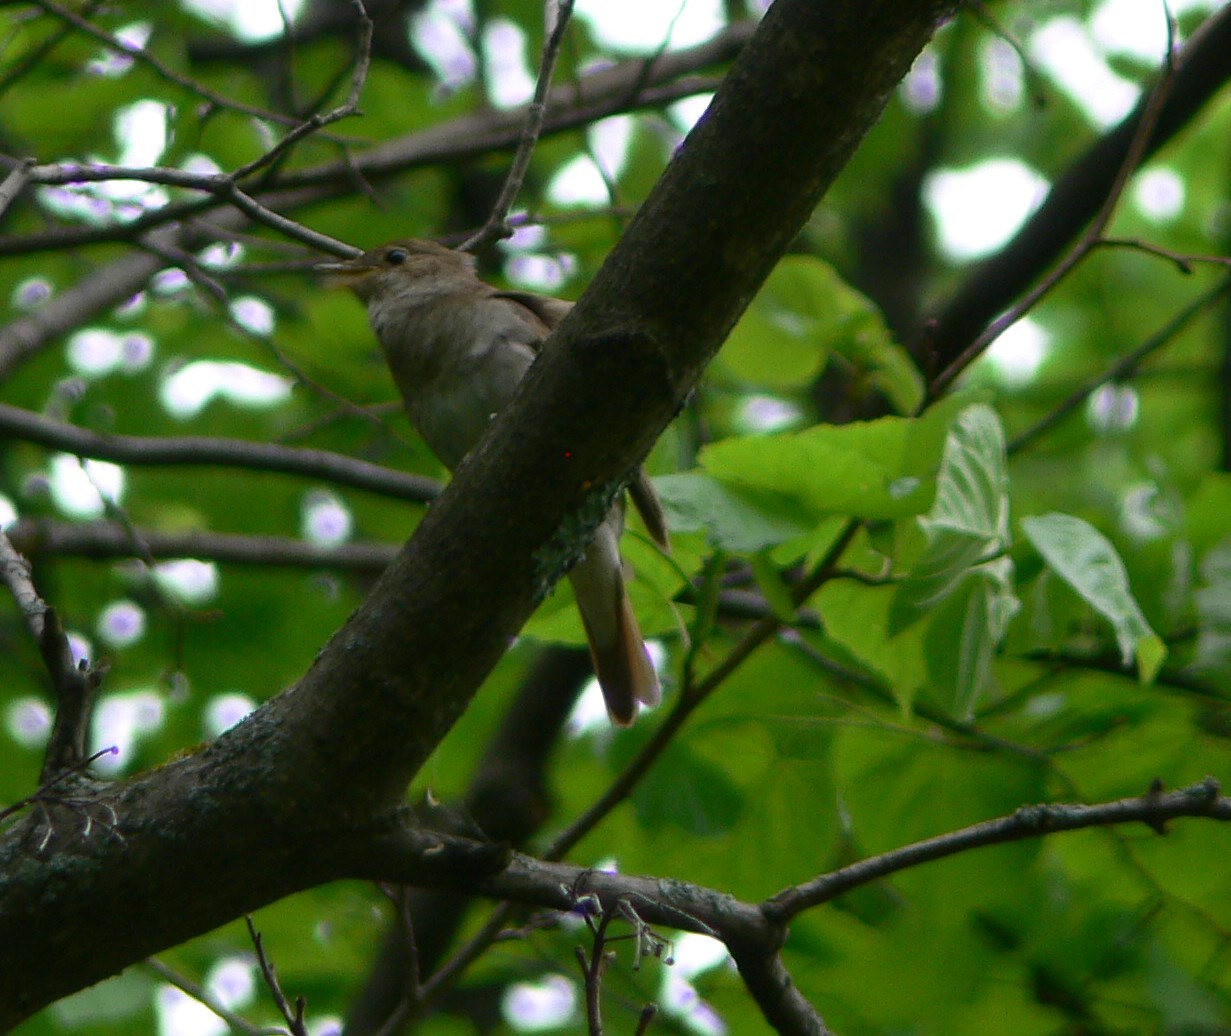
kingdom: Animalia
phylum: Chordata
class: Aves
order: Passeriformes
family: Muscicapidae
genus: Luscinia
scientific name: Luscinia luscinia
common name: Thrush nightingale
